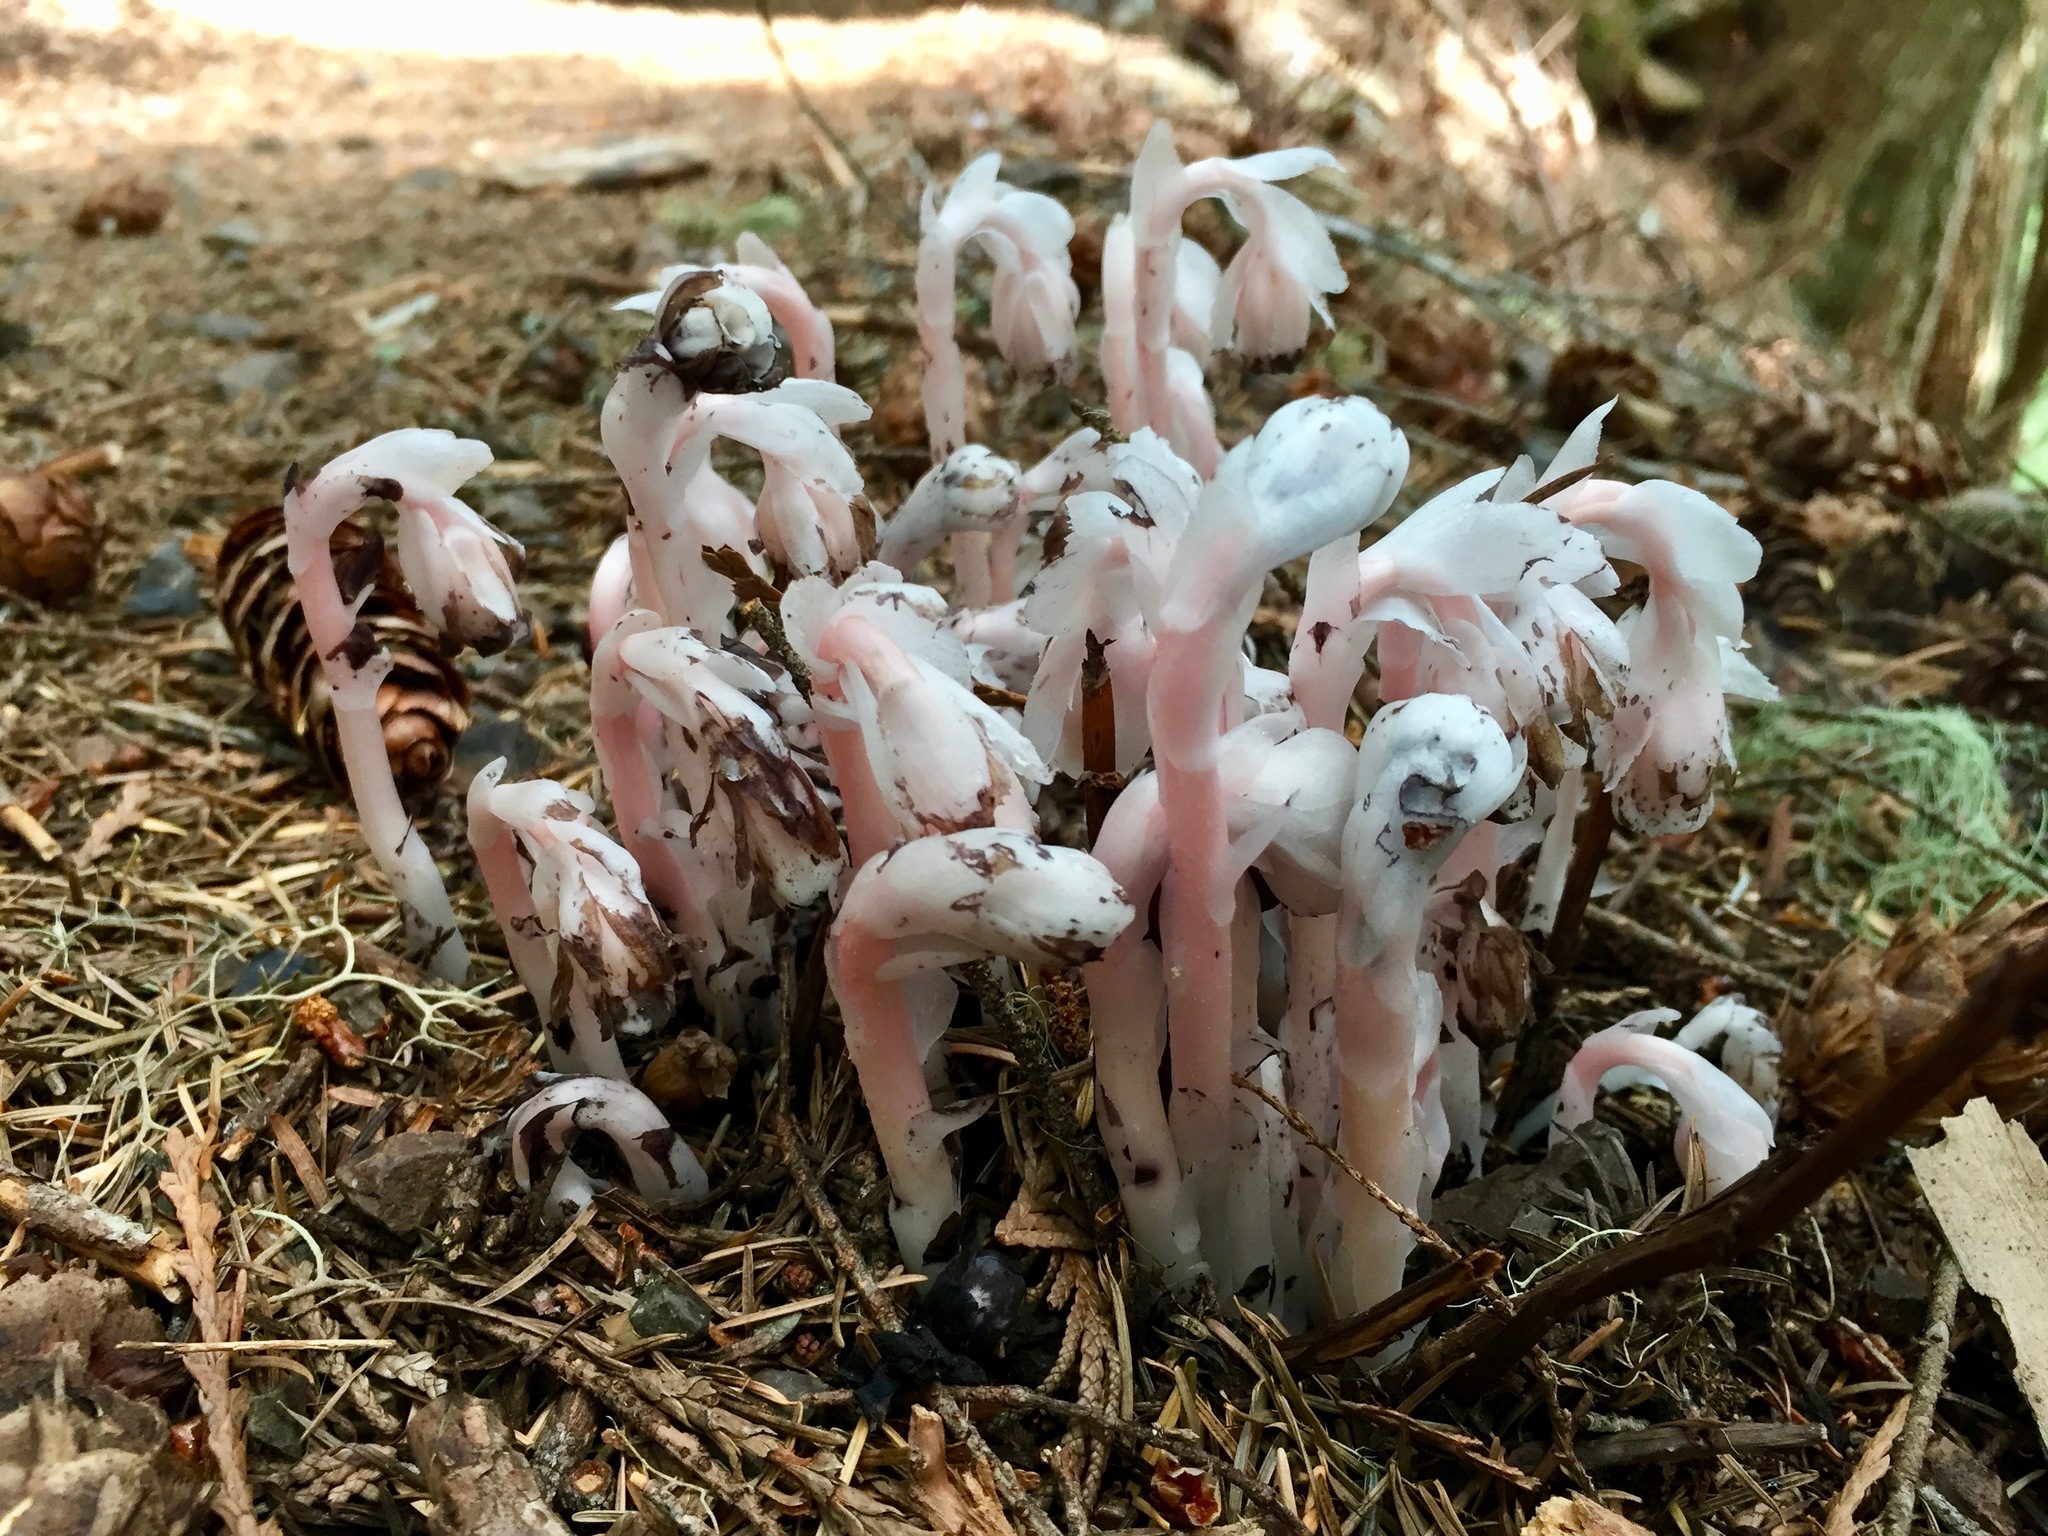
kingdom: Plantae
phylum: Tracheophyta
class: Magnoliopsida
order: Ericales
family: Ericaceae
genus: Monotropa
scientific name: Monotropa uniflora
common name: Convulsion root
